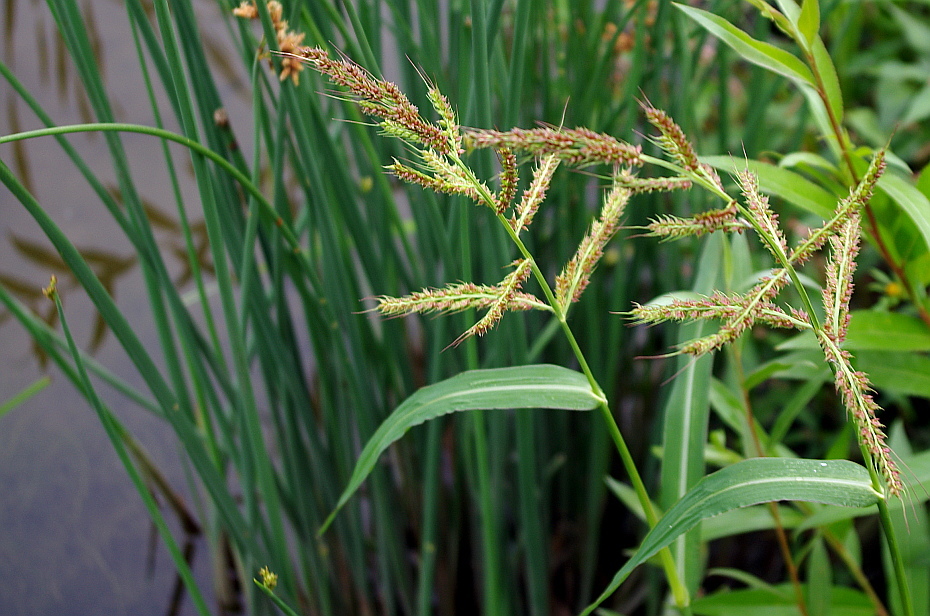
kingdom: Plantae
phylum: Tracheophyta
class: Liliopsida
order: Poales
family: Poaceae
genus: Echinochloa
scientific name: Echinochloa crus-galli
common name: Cockspur
